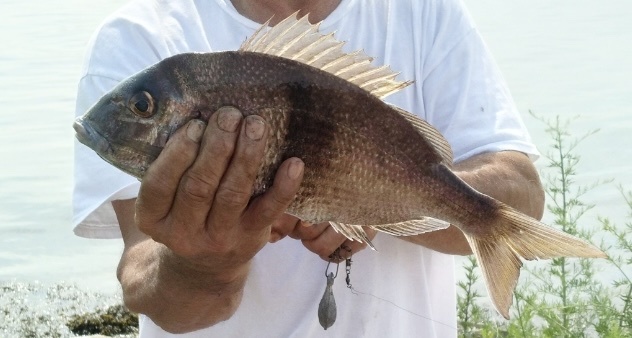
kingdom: Animalia
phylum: Chordata
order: Perciformes
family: Sparidae
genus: Stenotomus
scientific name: Stenotomus chrysops
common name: Scup
